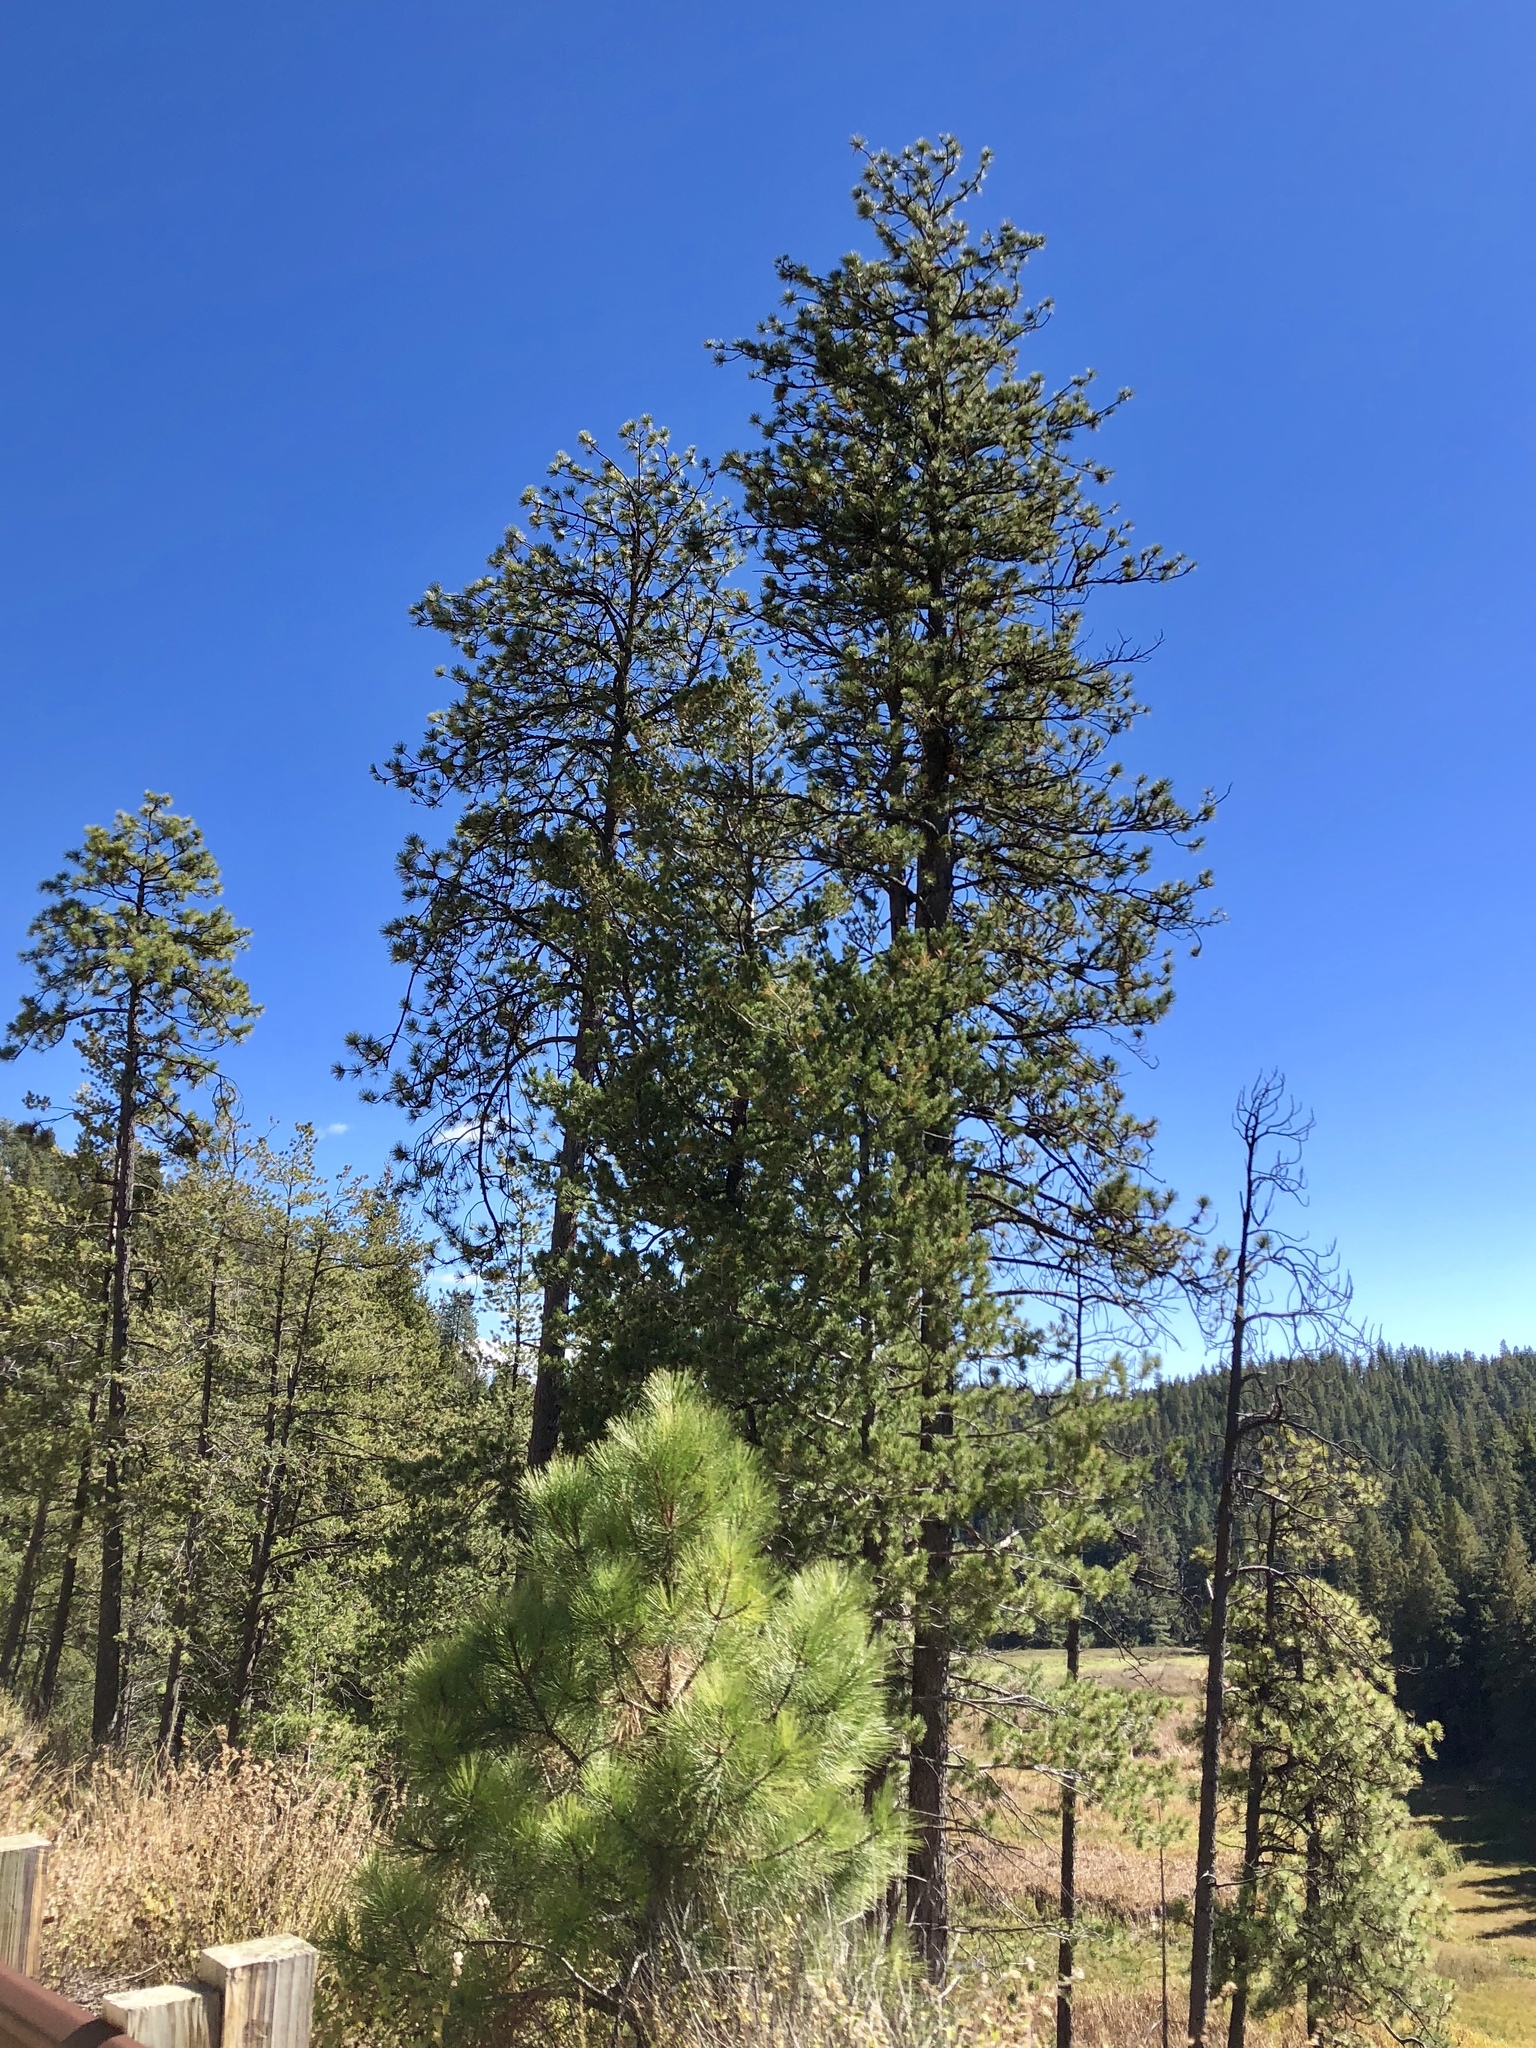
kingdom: Plantae
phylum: Tracheophyta
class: Pinopsida
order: Pinales
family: Pinaceae
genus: Pinus
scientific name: Pinus ponderosa
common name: Western yellow-pine
